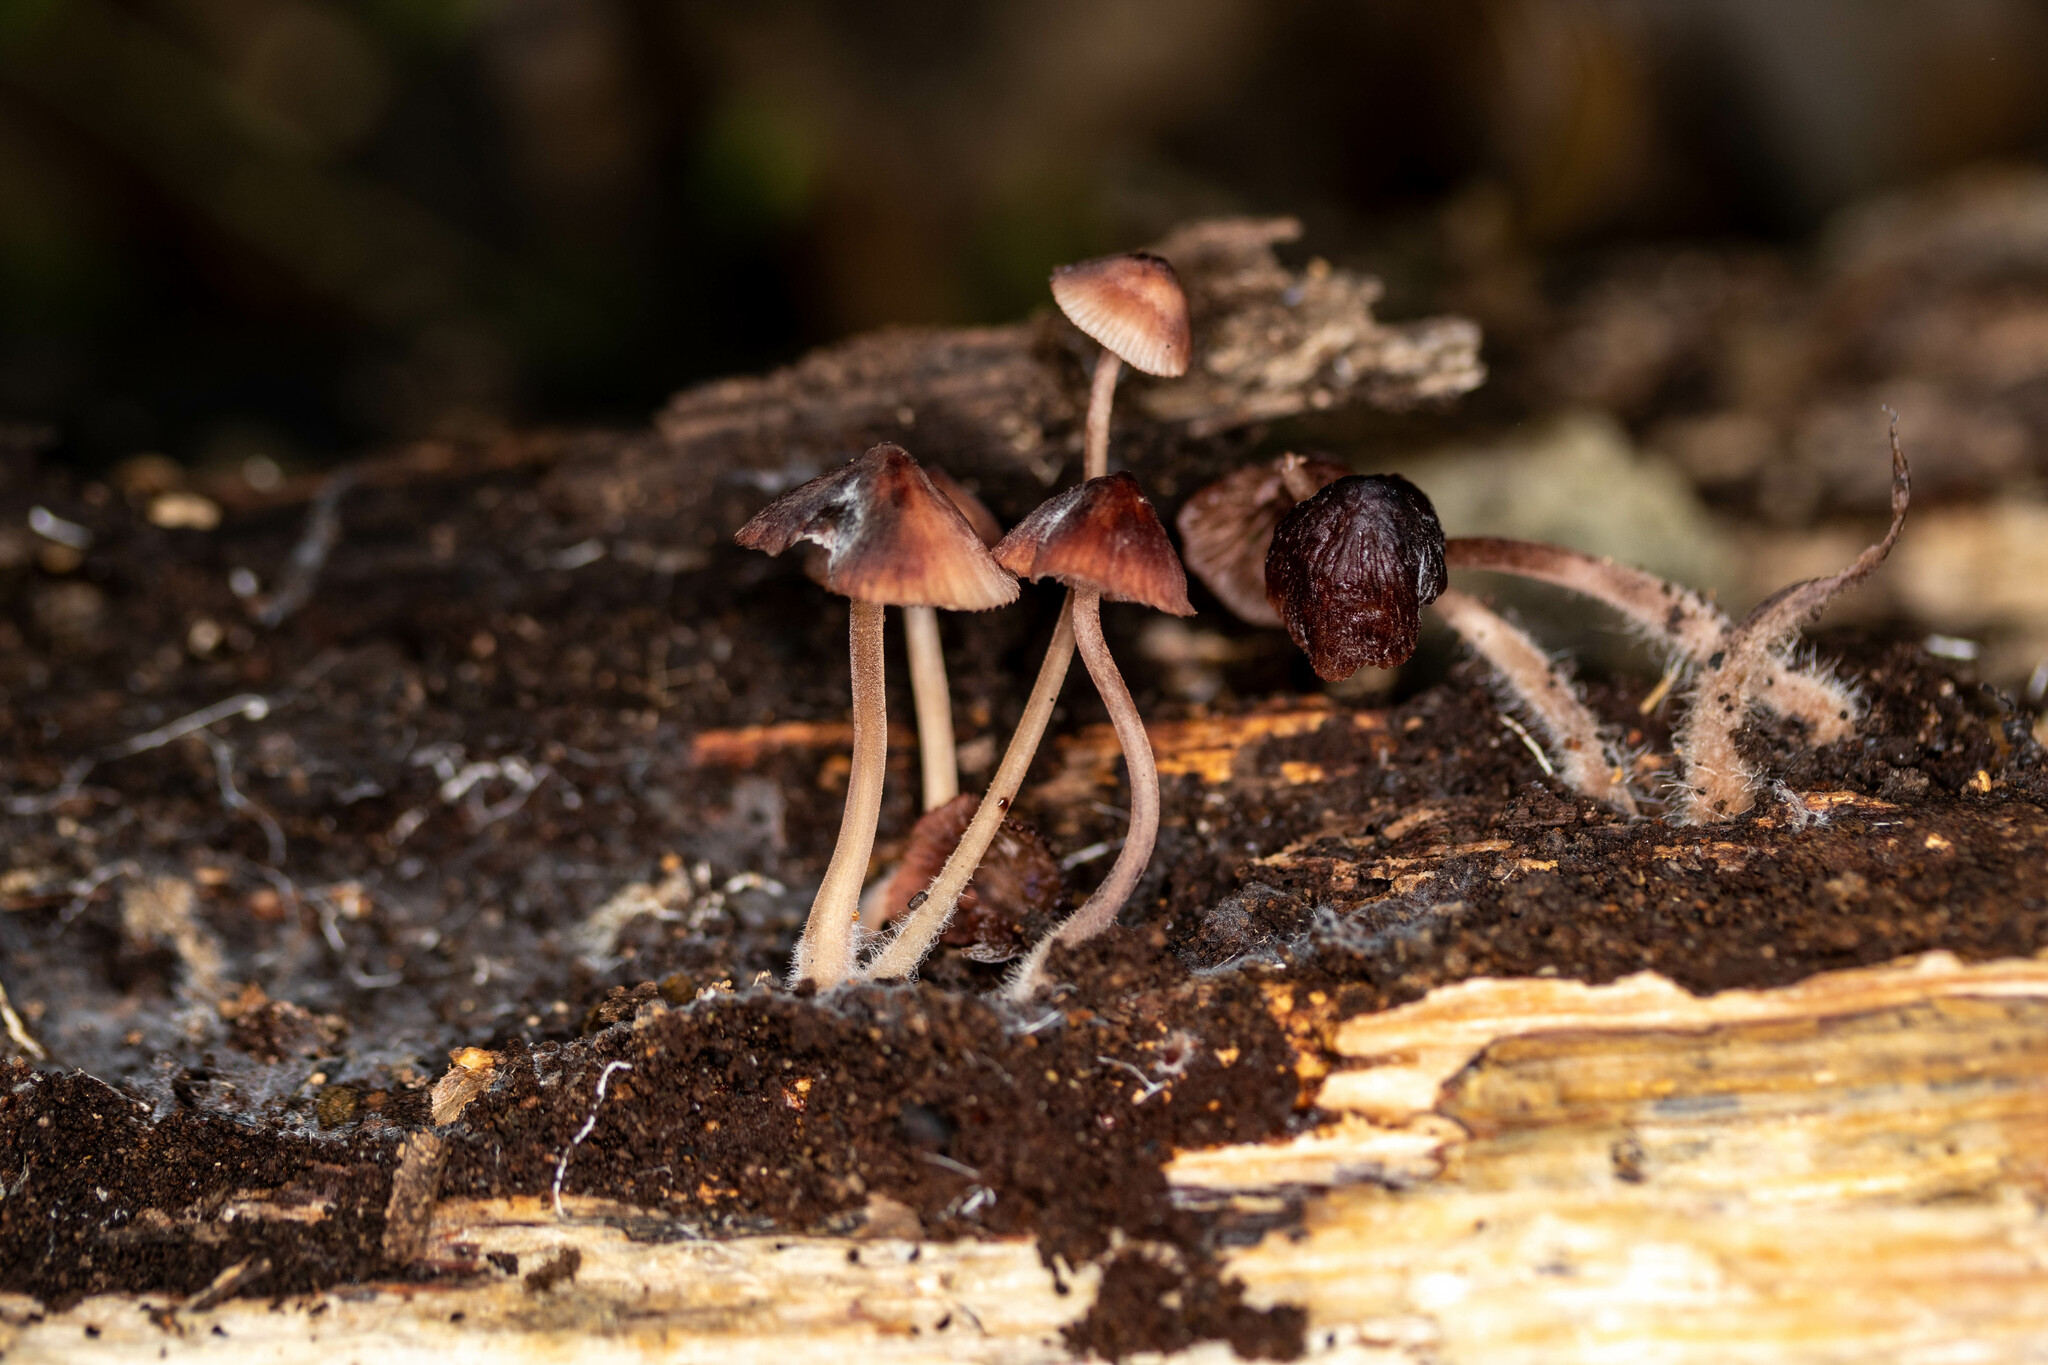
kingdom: Fungi
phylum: Basidiomycota
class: Agaricomycetes
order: Agaricales
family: Mycenaceae
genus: Mycena
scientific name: Mycena haematopus
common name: Burgundydrop bonnet
